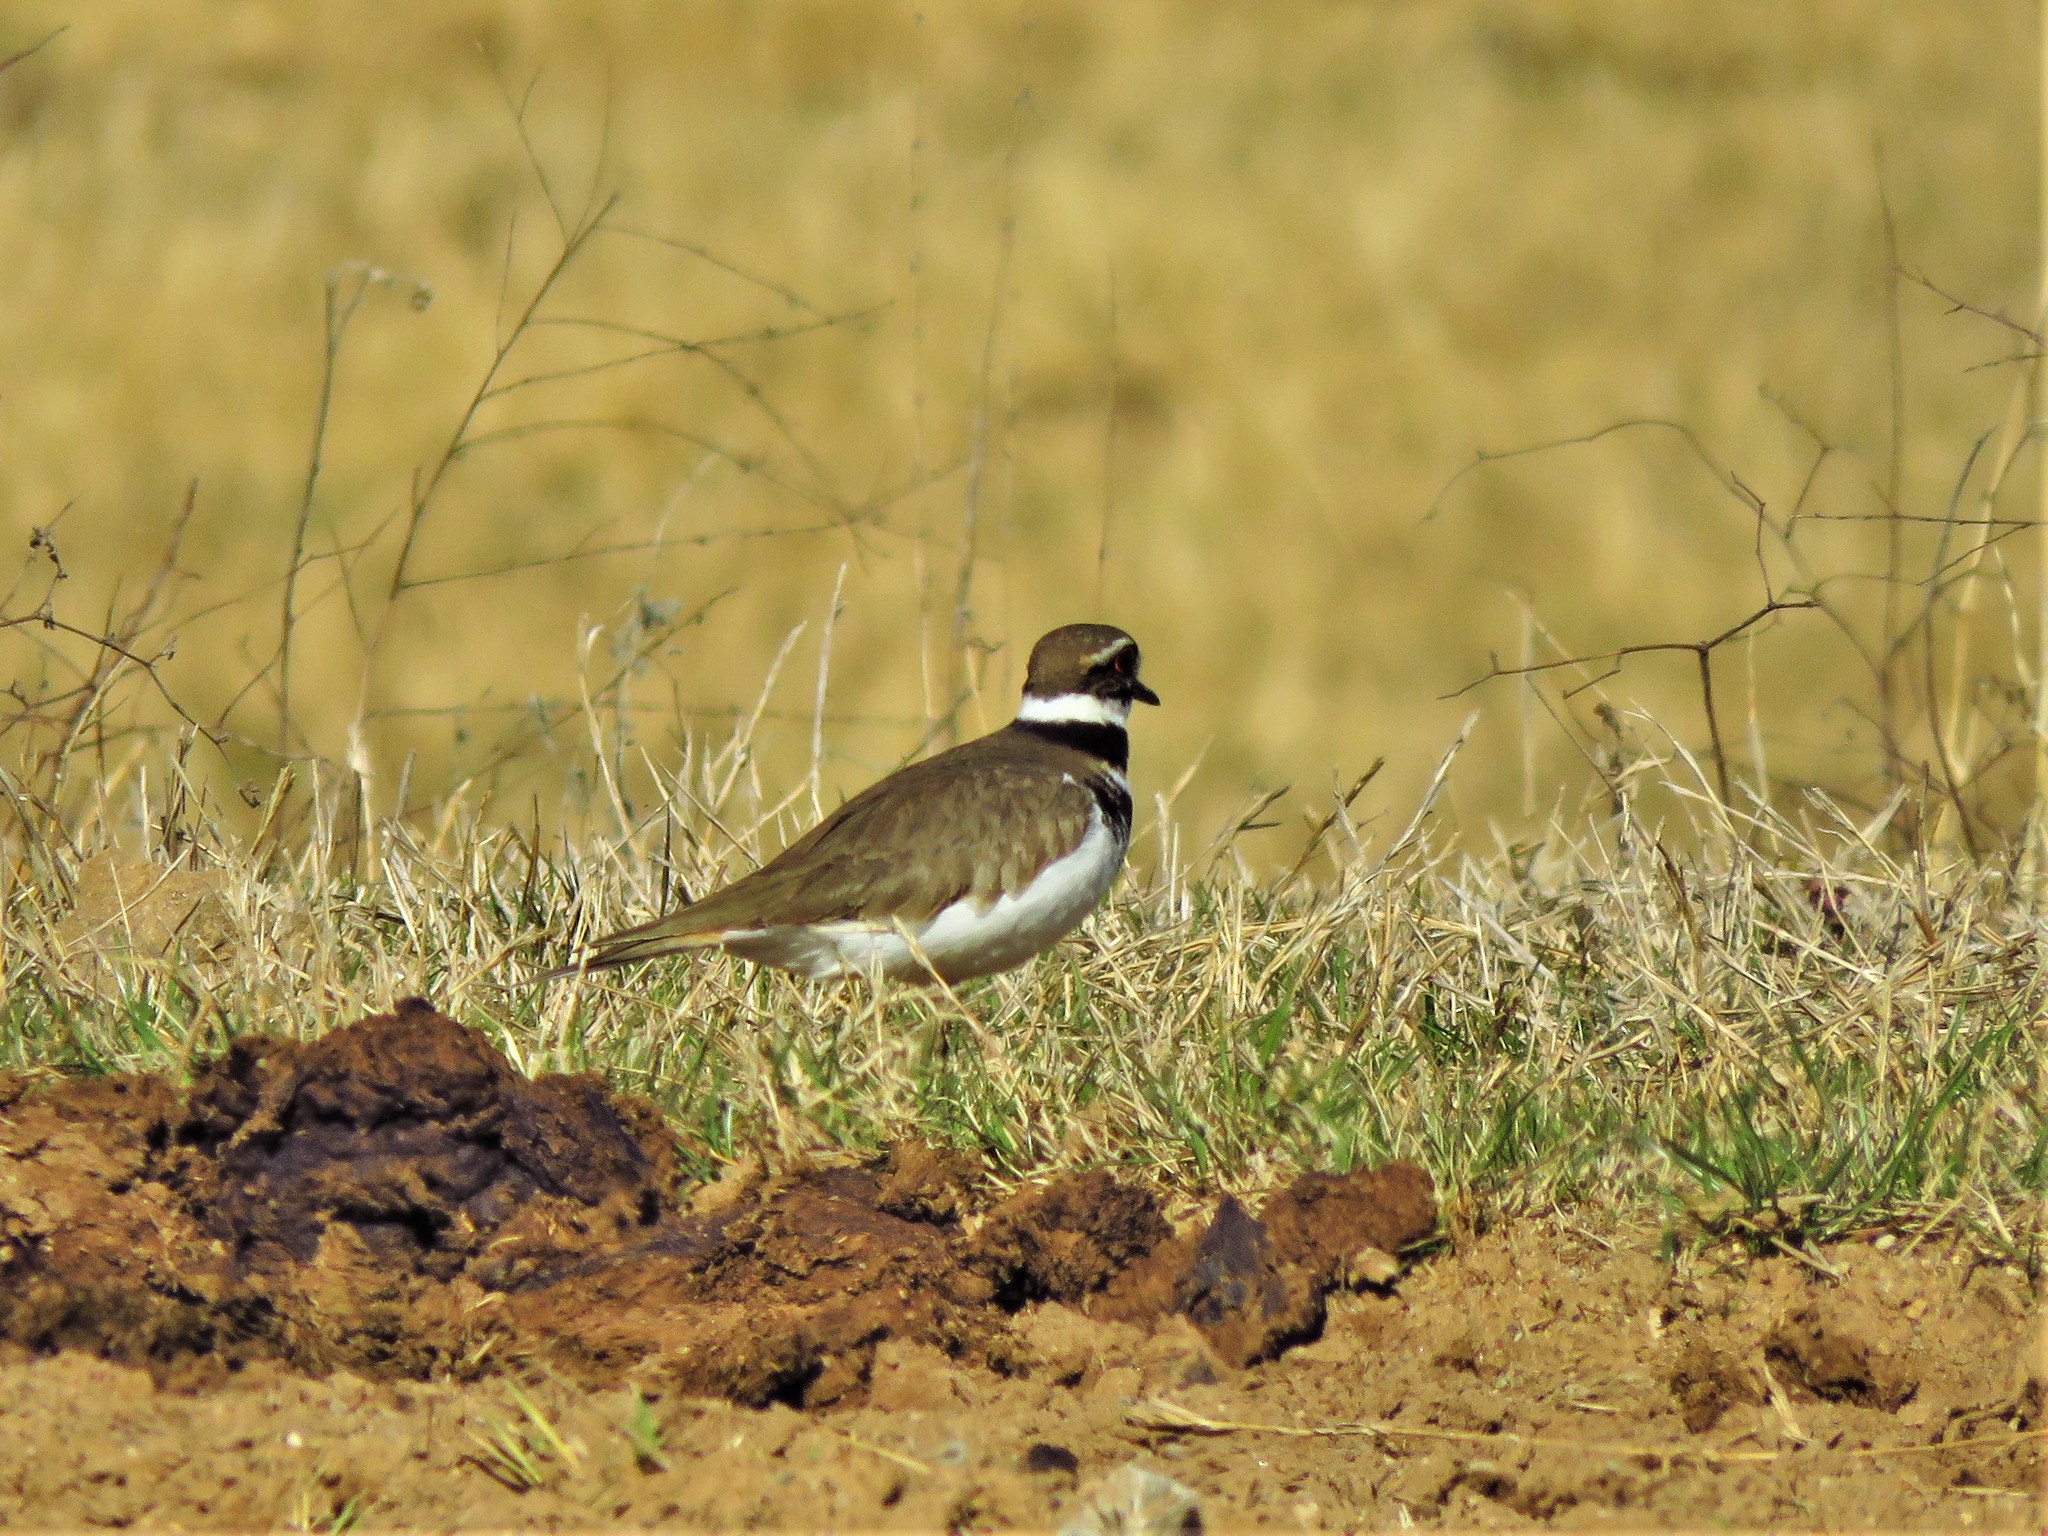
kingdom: Animalia
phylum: Chordata
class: Aves
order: Charadriiformes
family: Charadriidae
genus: Charadrius
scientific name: Charadrius vociferus
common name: Killdeer
